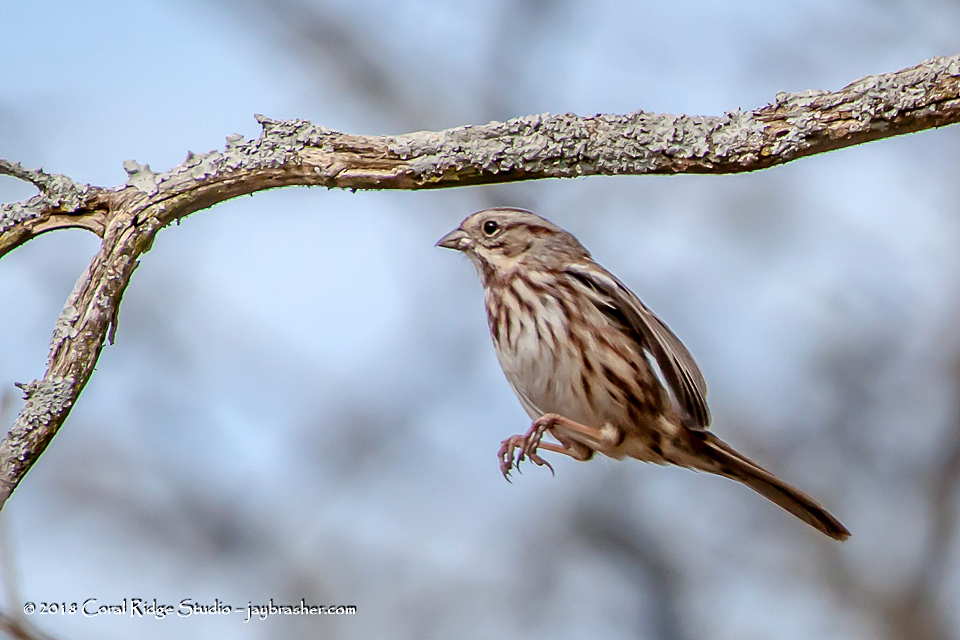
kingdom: Animalia
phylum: Chordata
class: Aves
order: Passeriformes
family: Passerellidae
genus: Melospiza
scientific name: Melospiza melodia
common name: Song sparrow
